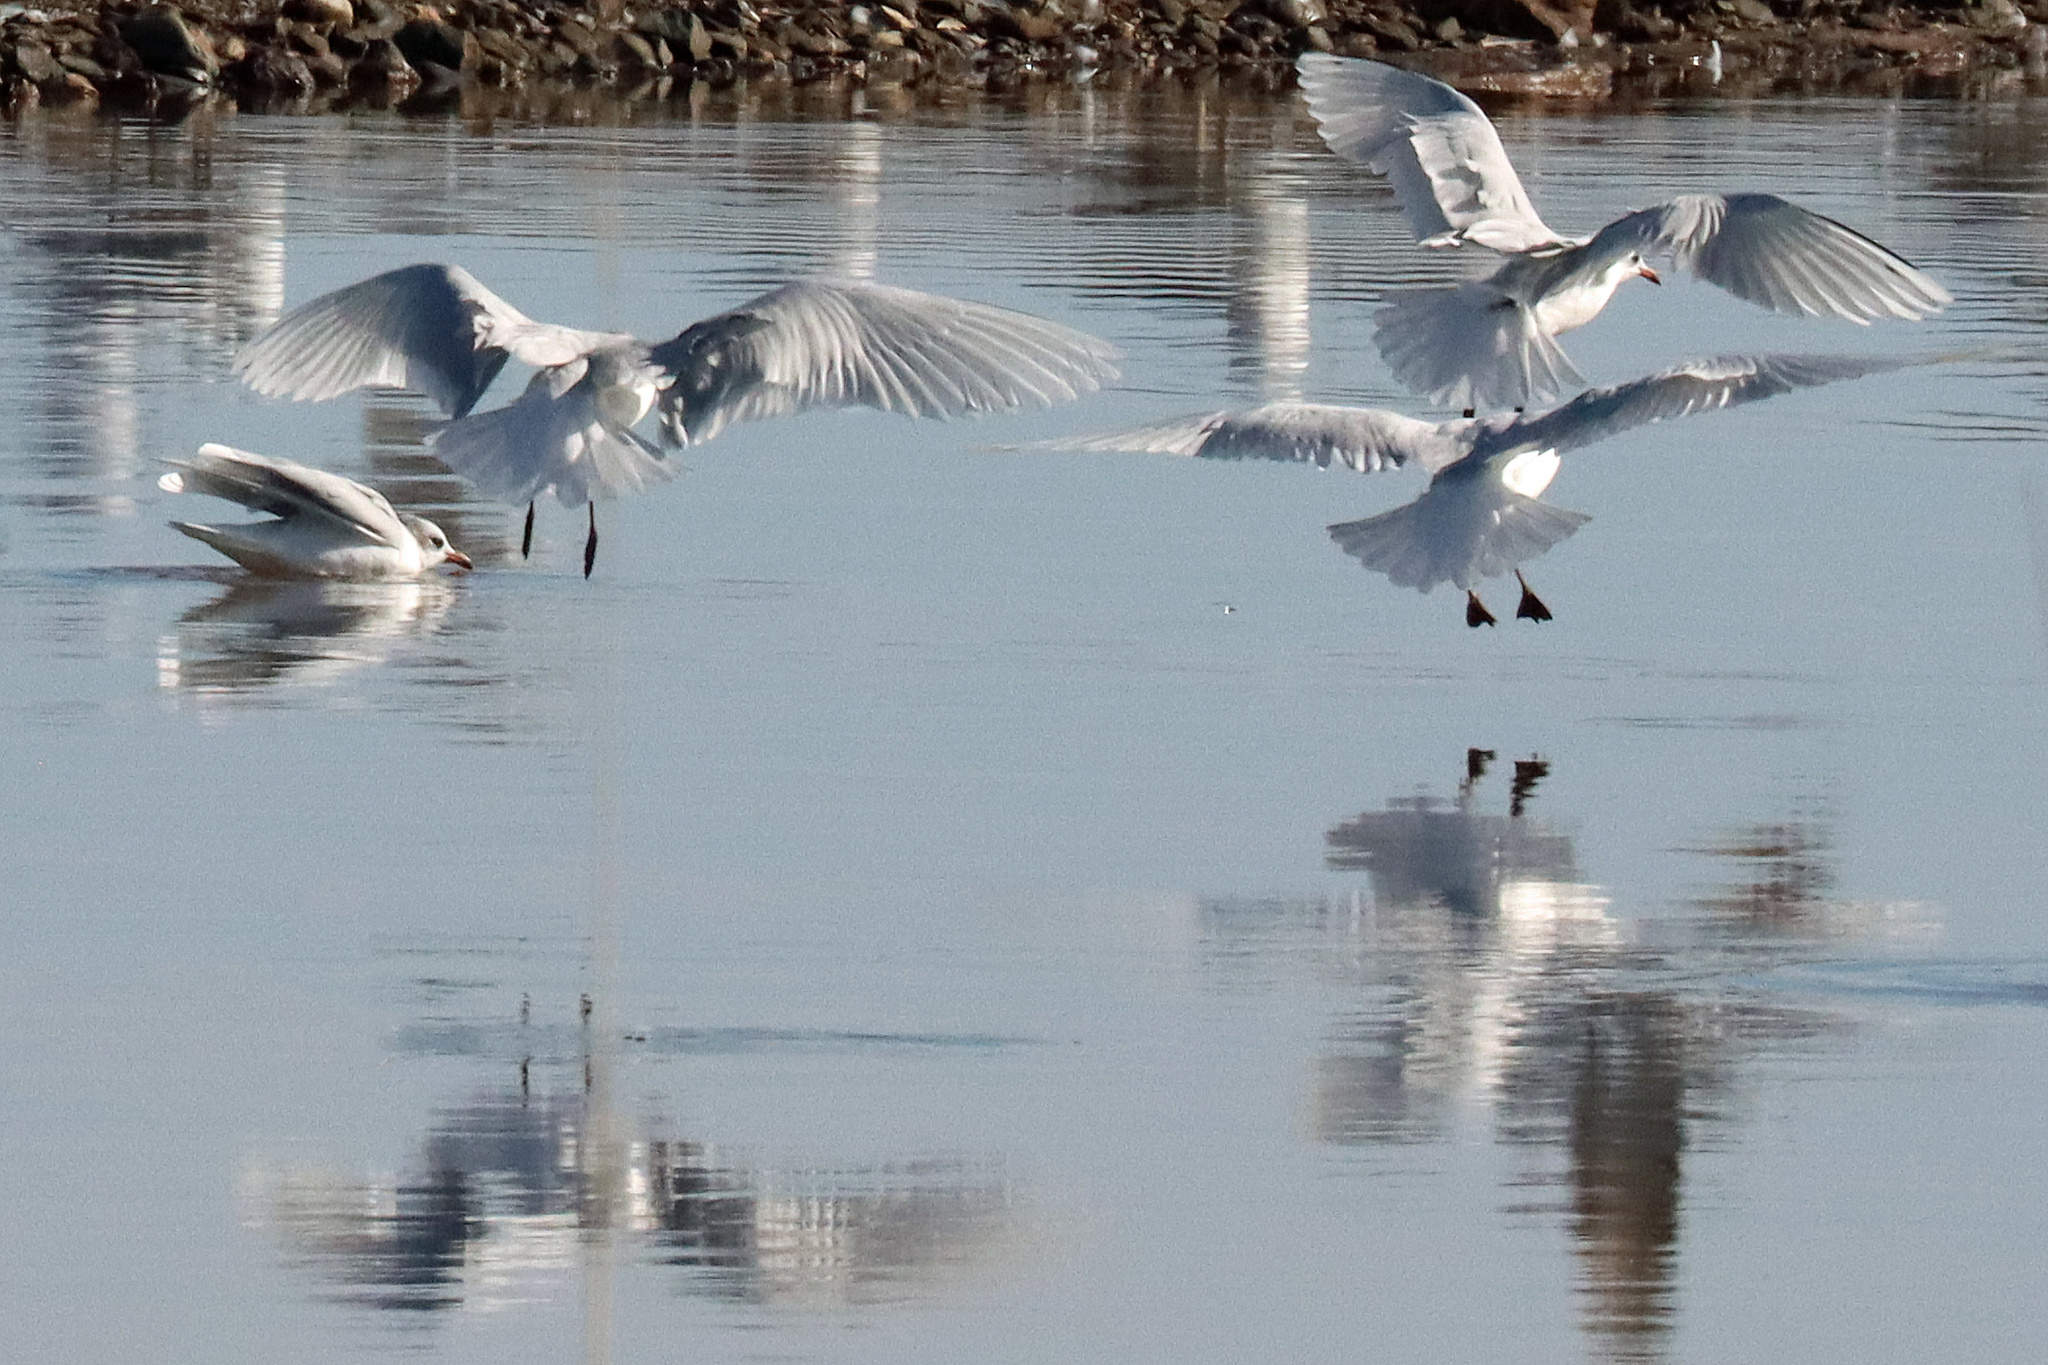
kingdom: Animalia
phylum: Chordata
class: Aves
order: Charadriiformes
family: Laridae
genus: Ichthyaetus
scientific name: Ichthyaetus melanocephalus
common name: Mediterranean gull
